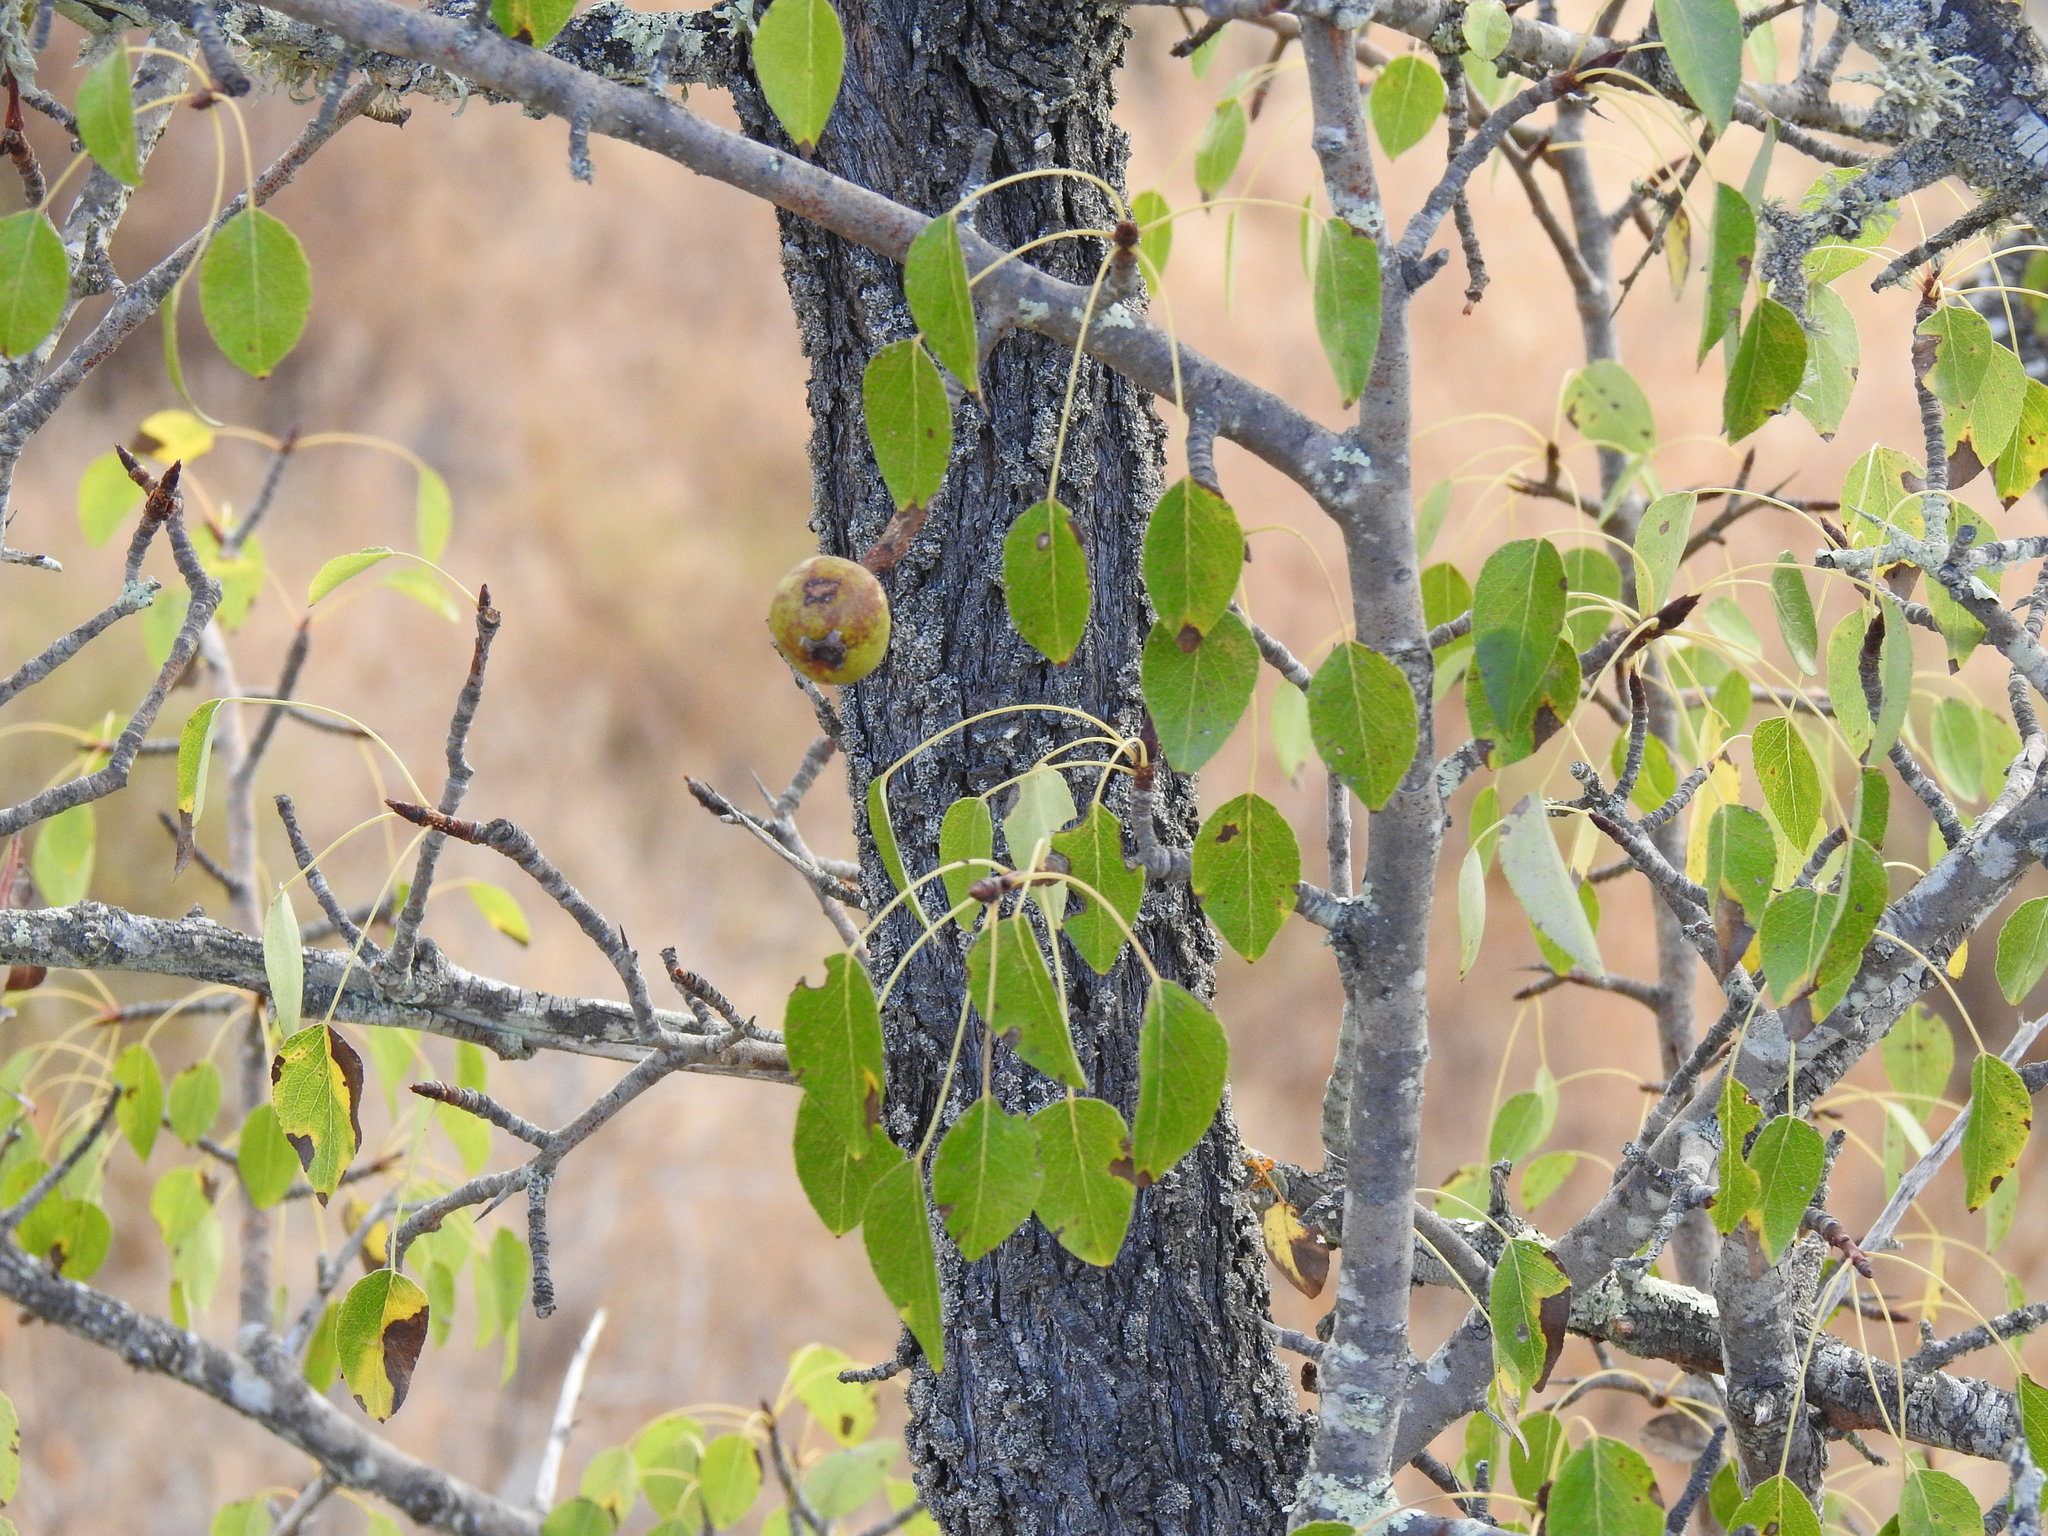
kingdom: Plantae
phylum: Tracheophyta
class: Magnoliopsida
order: Rosales
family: Rosaceae
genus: Pyrus
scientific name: Pyrus bourgaeana
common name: Iberian pear
